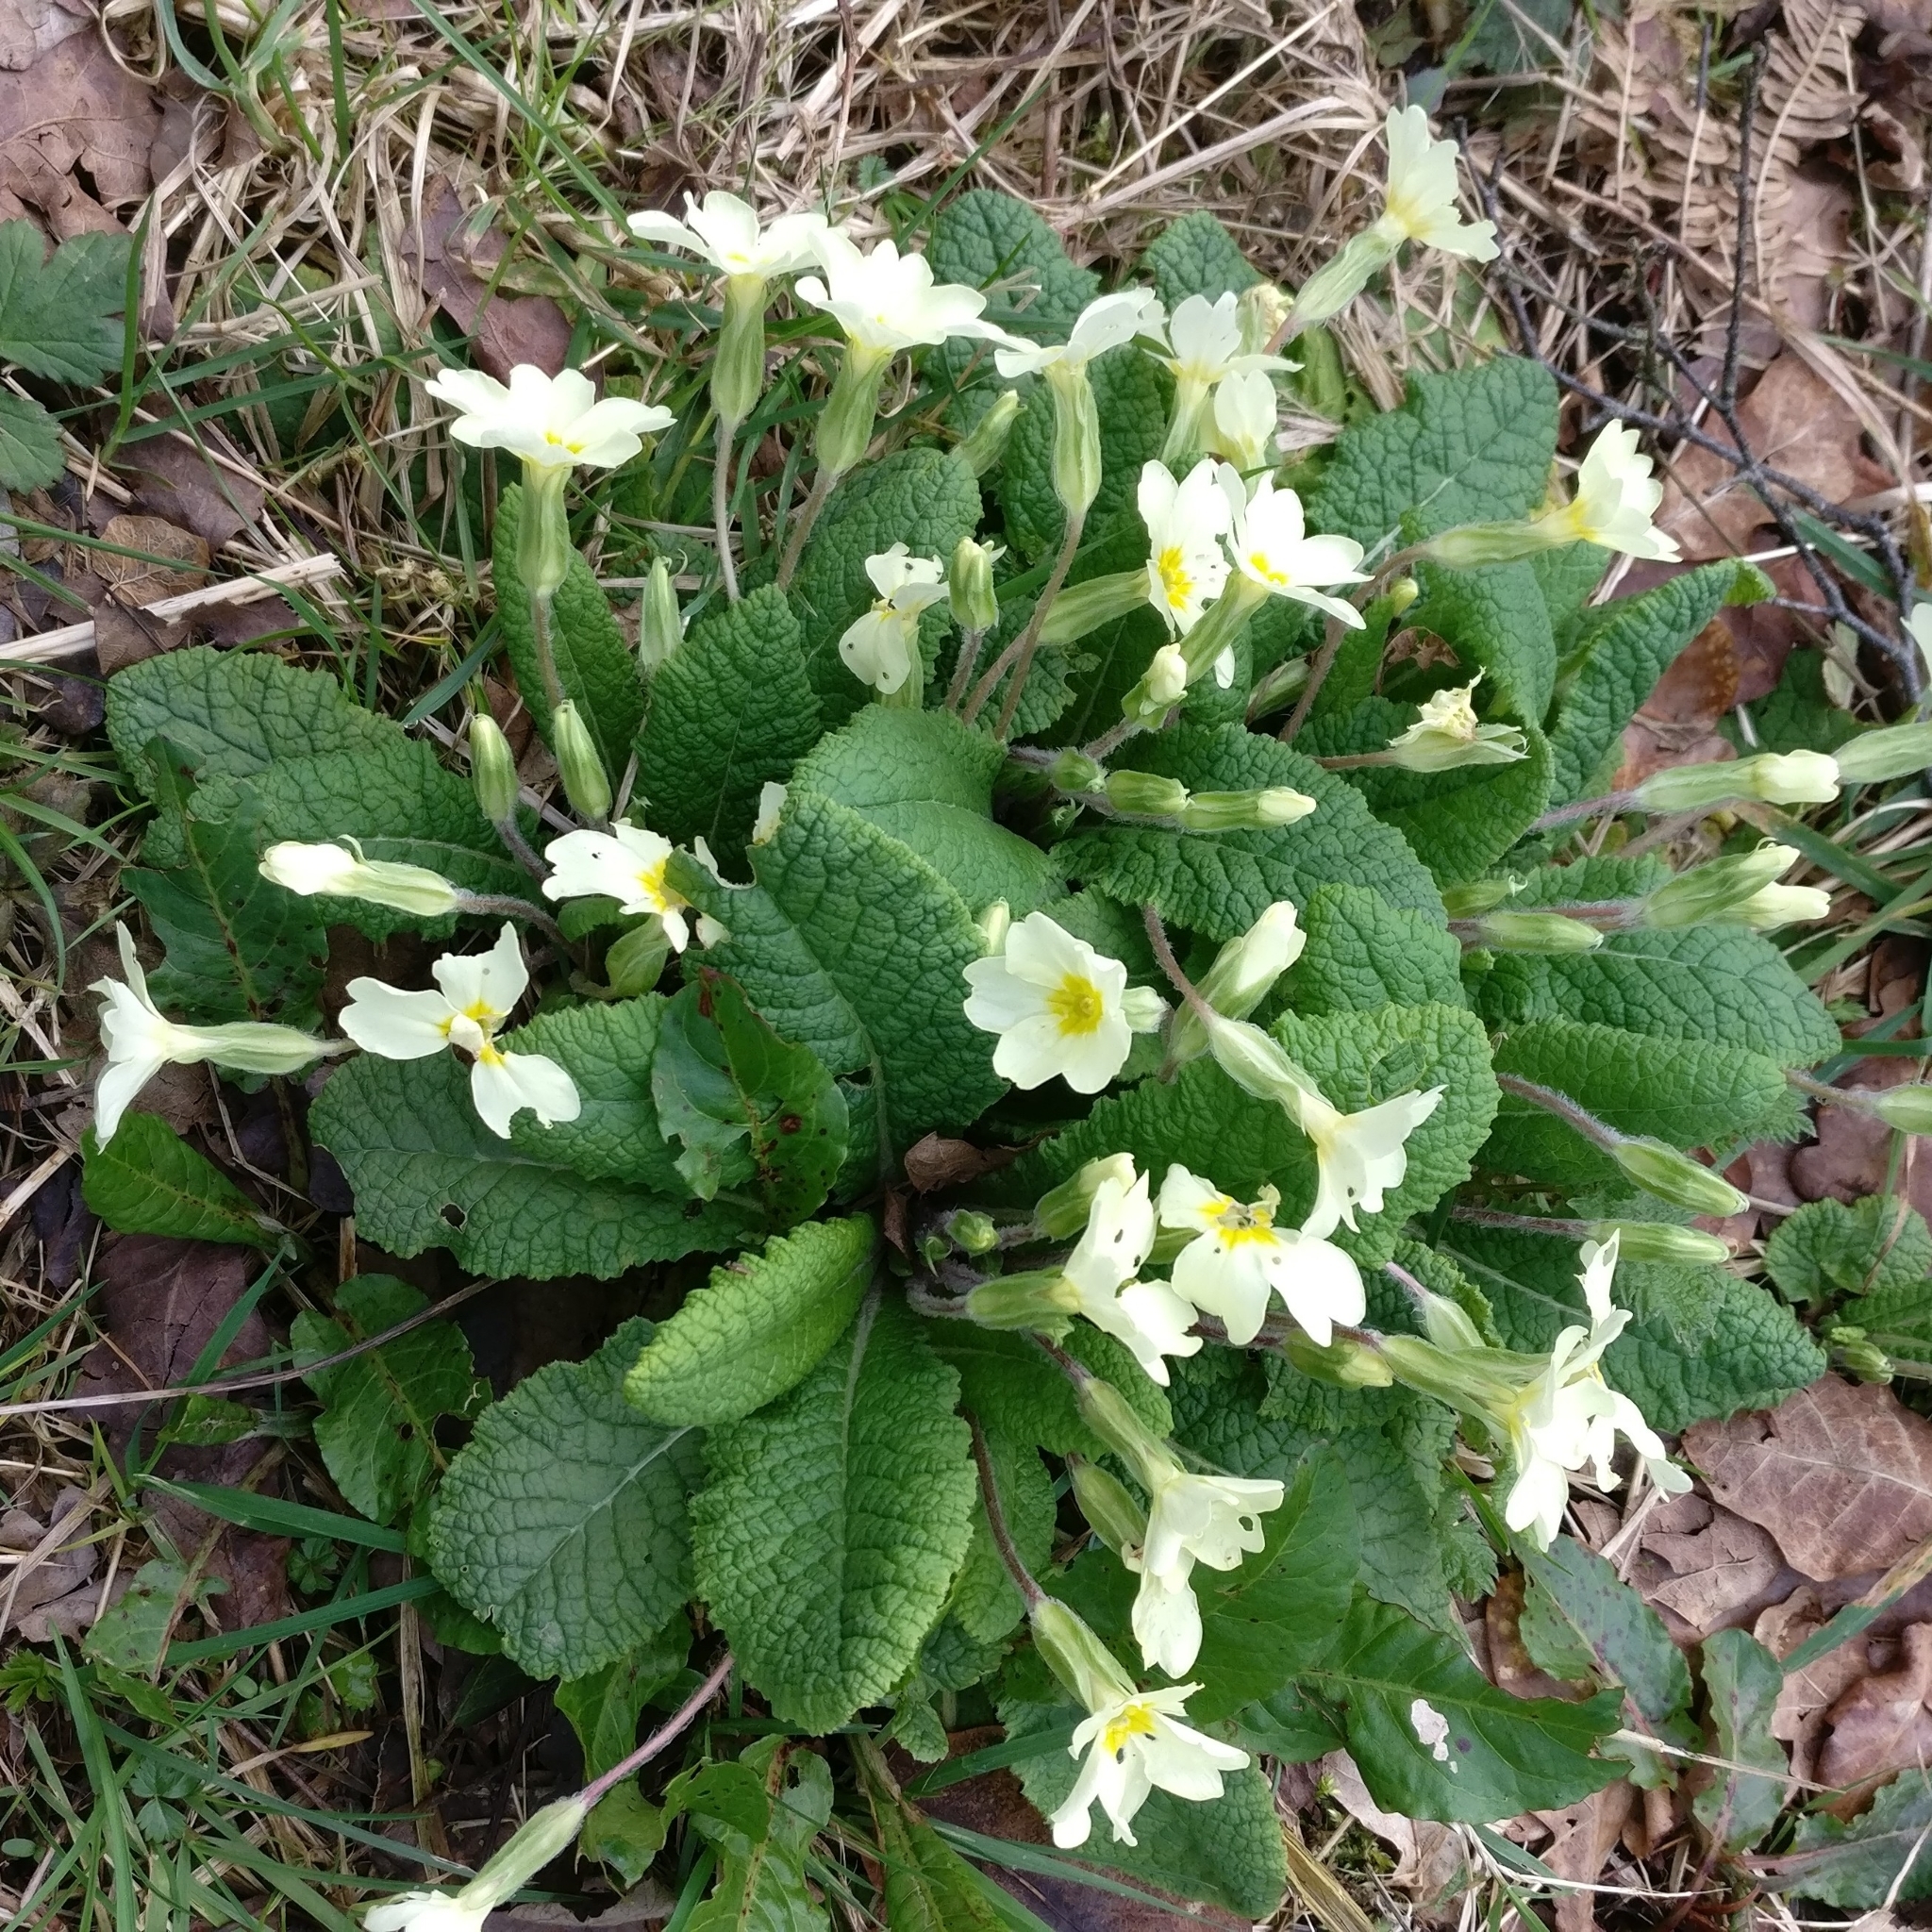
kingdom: Plantae
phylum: Tracheophyta
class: Magnoliopsida
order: Ericales
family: Primulaceae
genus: Primula
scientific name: Primula vulgaris
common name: Primrose
